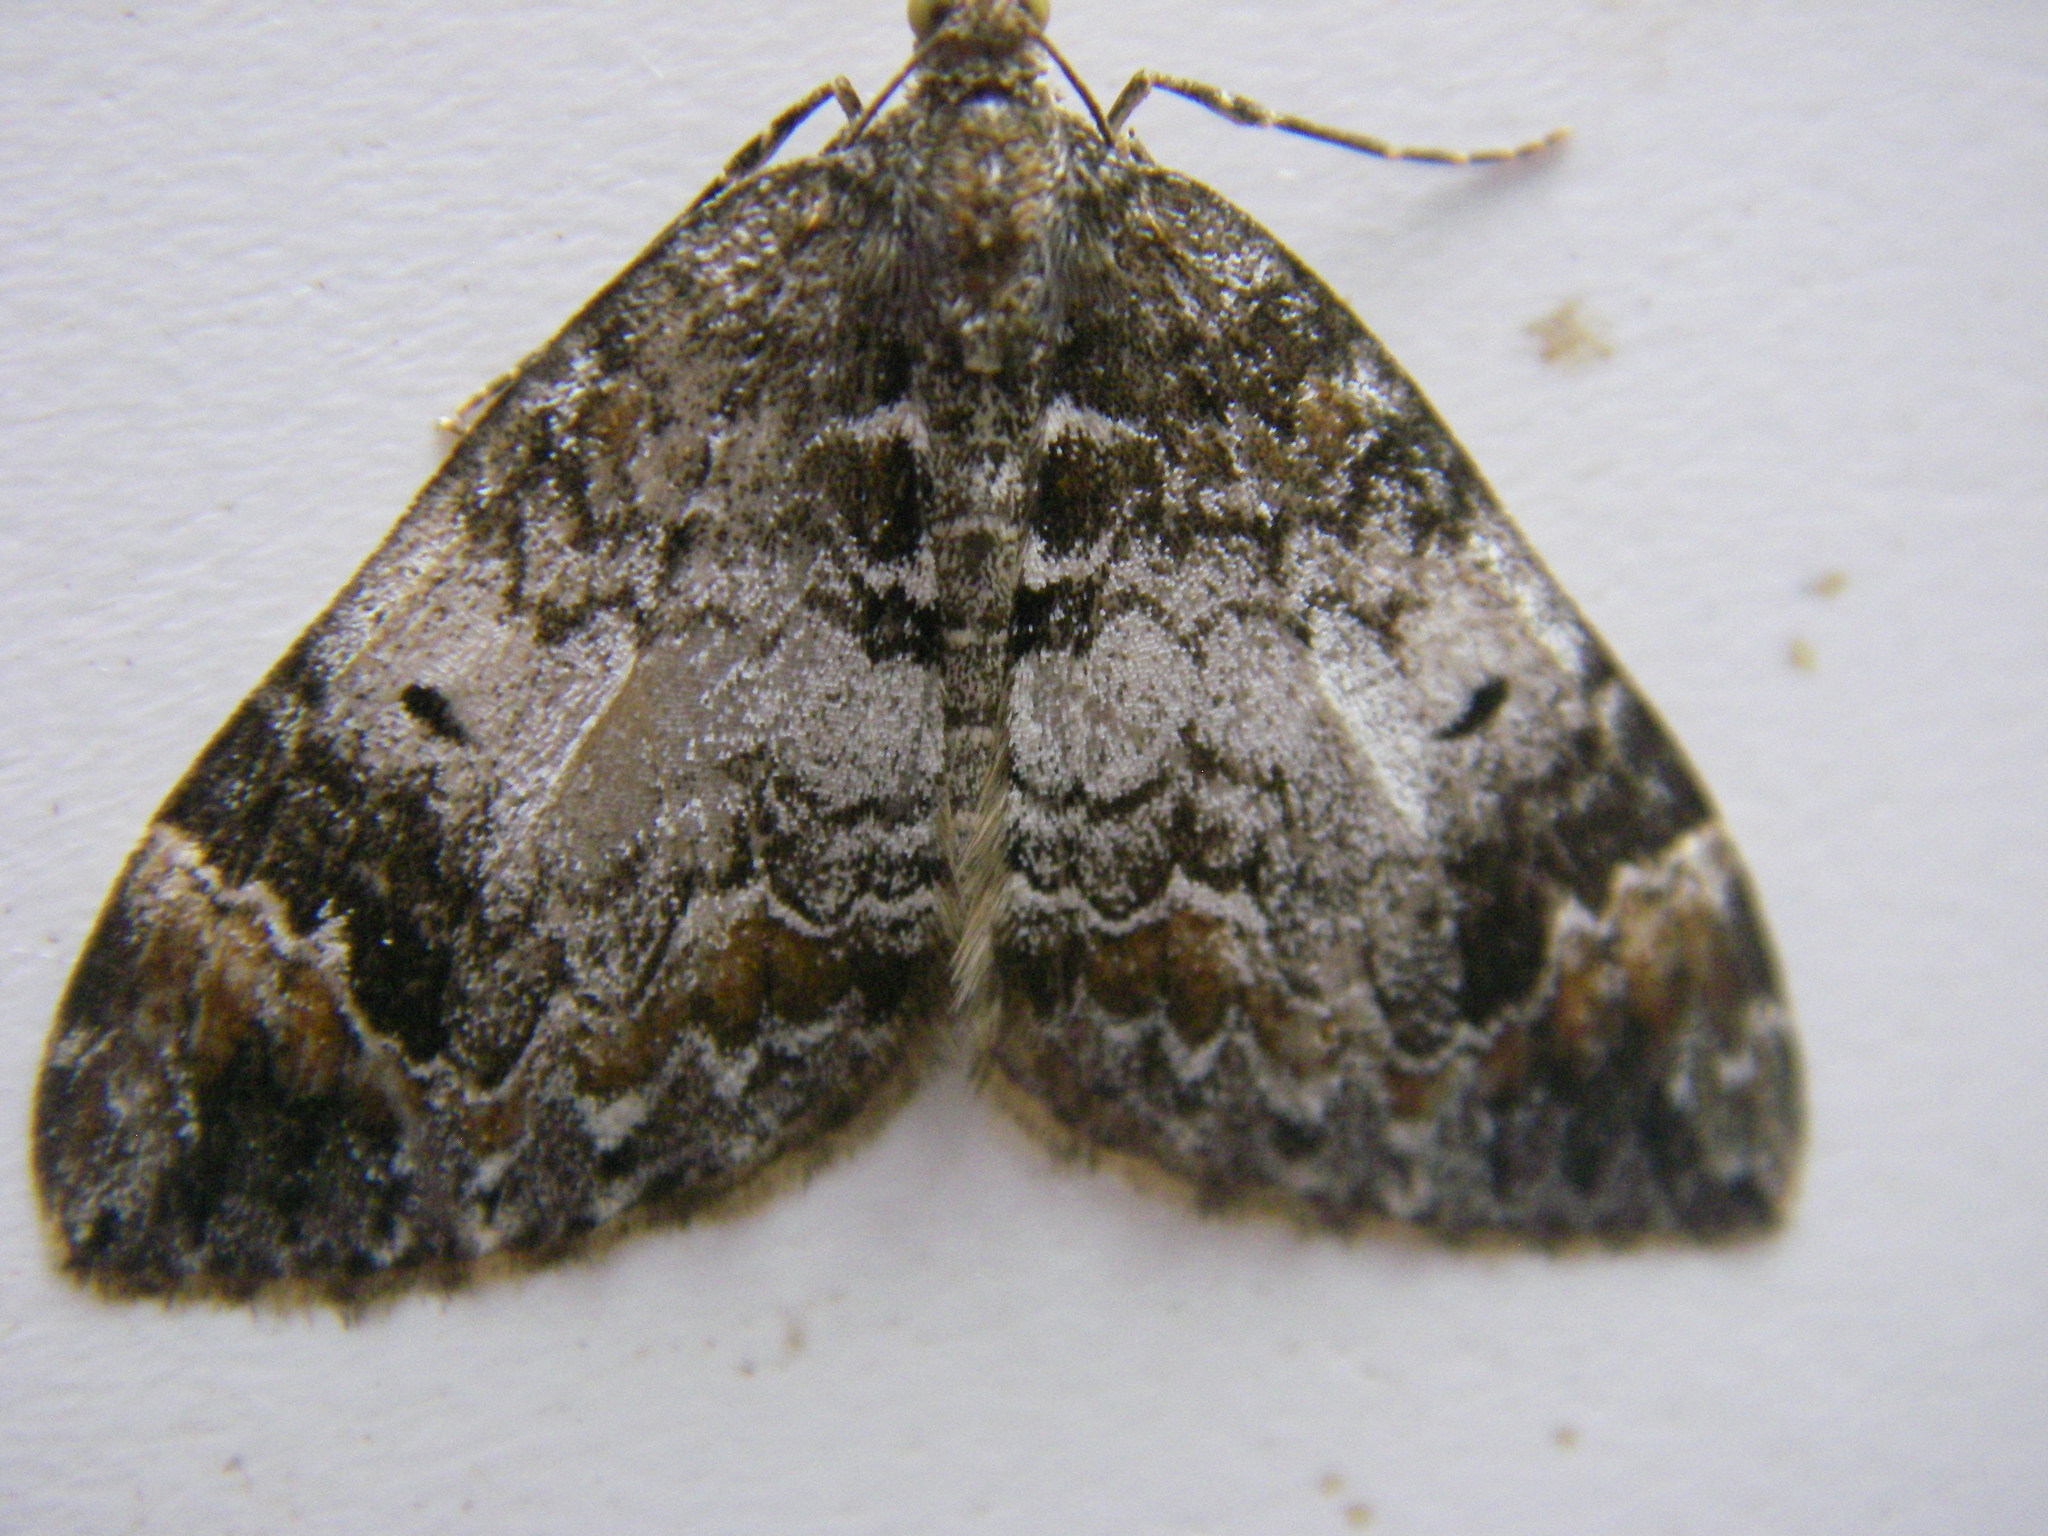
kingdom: Animalia
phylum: Arthropoda
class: Insecta
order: Lepidoptera
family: Geometridae
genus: Dysstroma
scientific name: Dysstroma truncata
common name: Common marbled carpet
